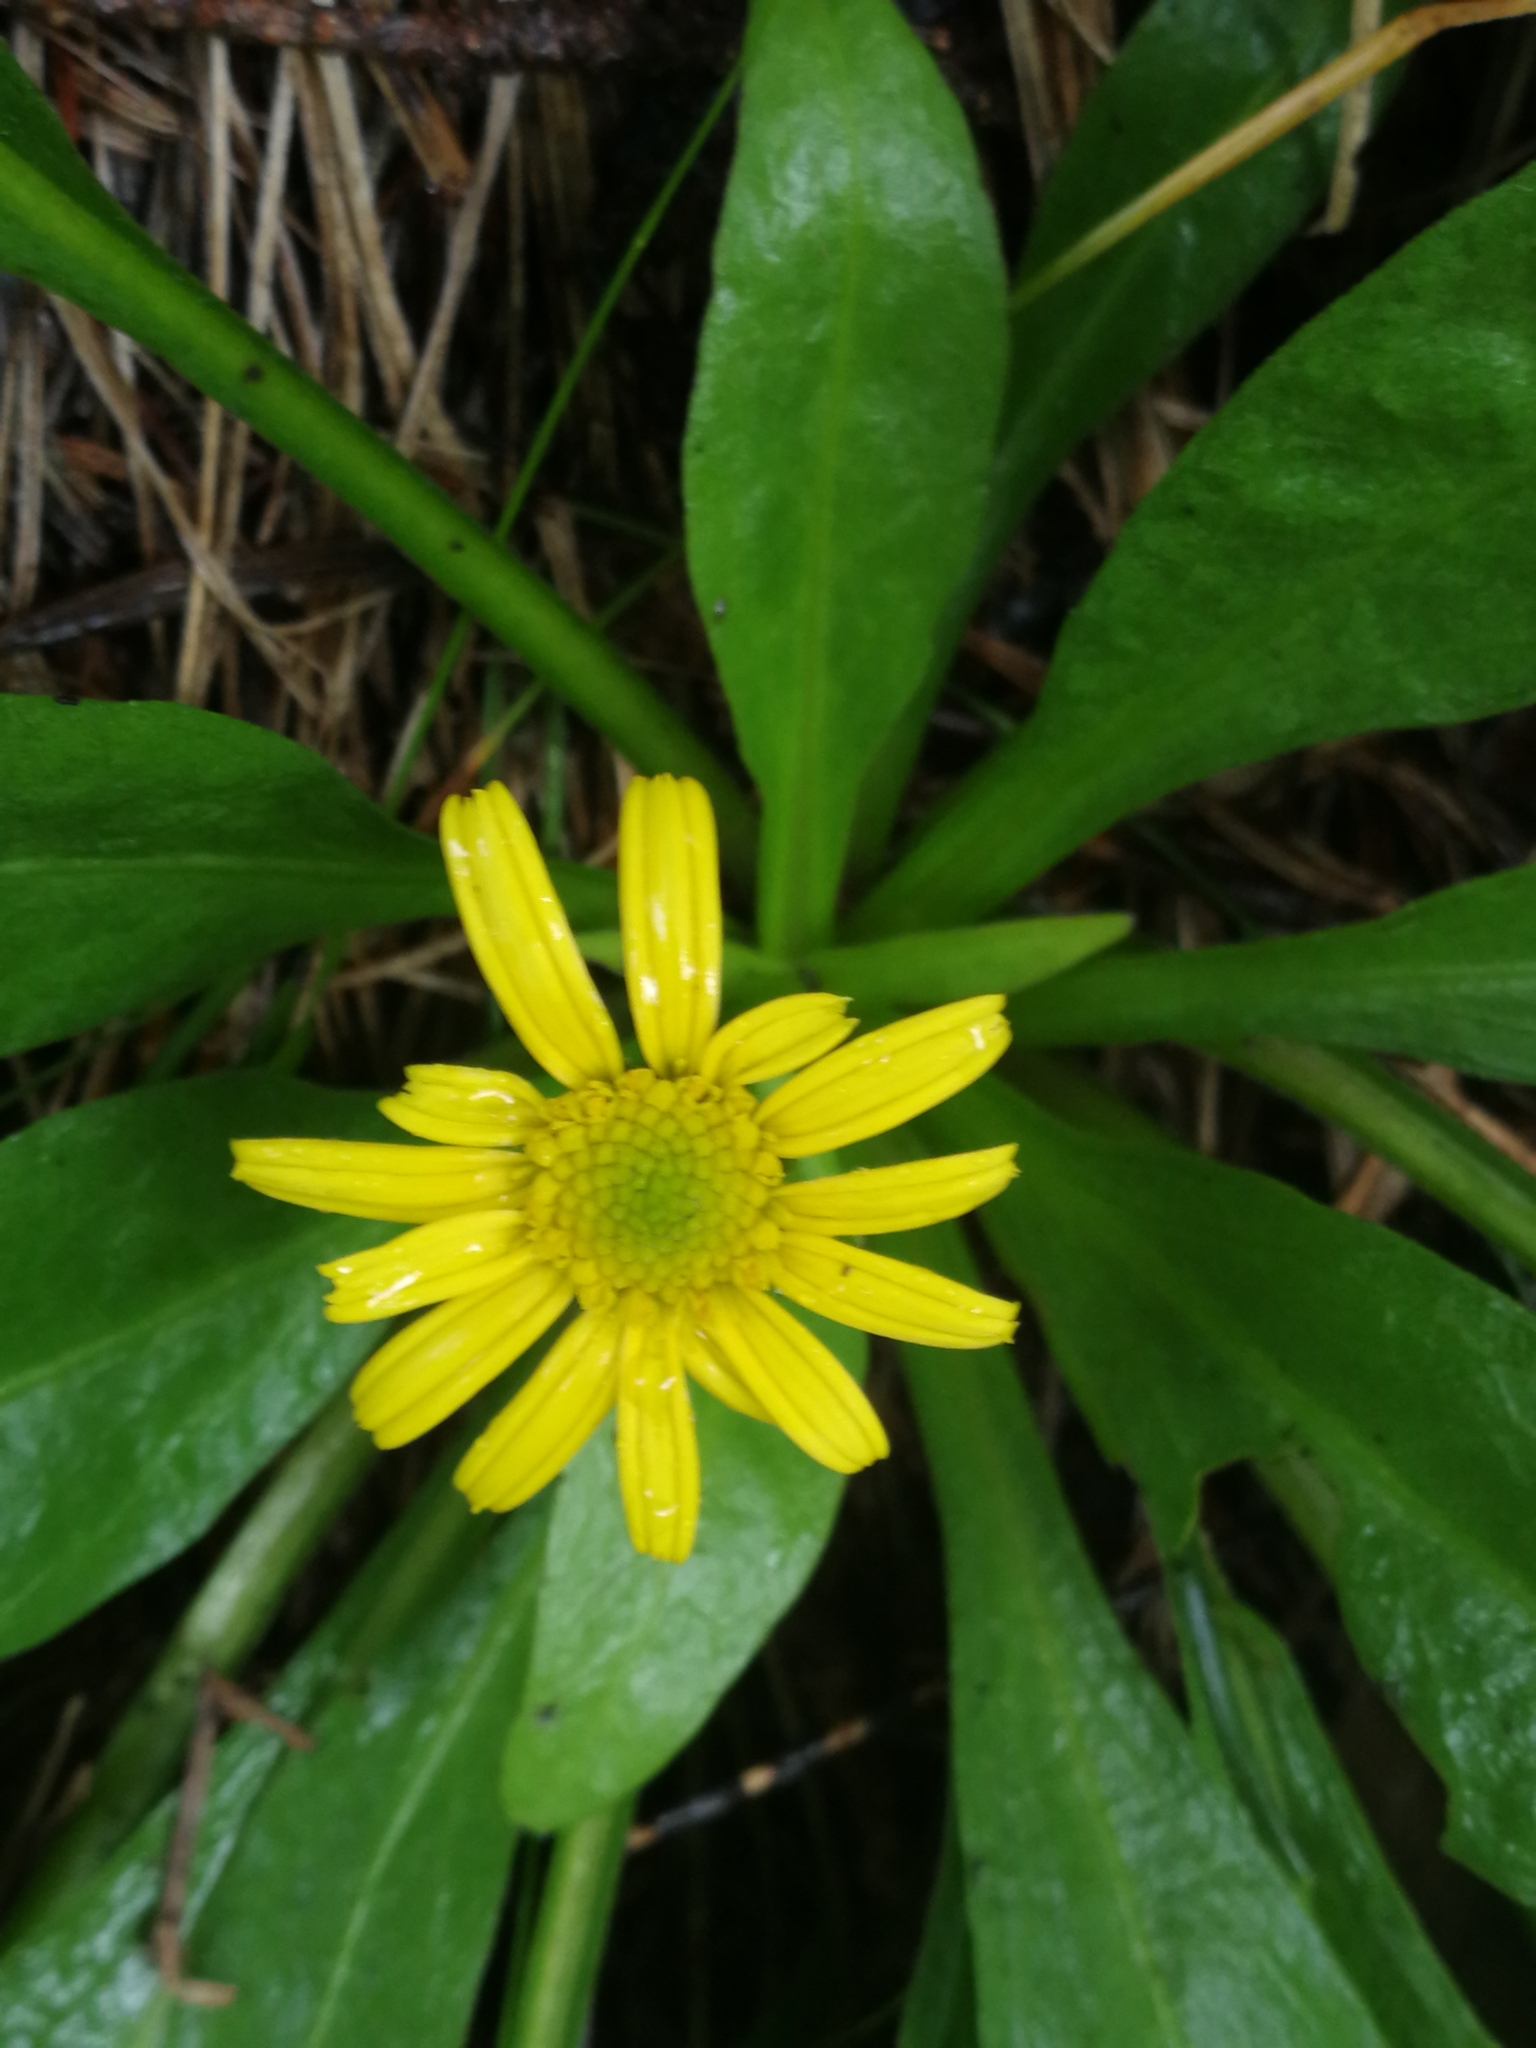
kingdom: Plantae
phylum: Tracheophyta
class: Magnoliopsida
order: Asterales
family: Asteraceae
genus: Buphthalmum
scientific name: Buphthalmum salicifolium
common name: Willow-leaved yellow-oxeye
